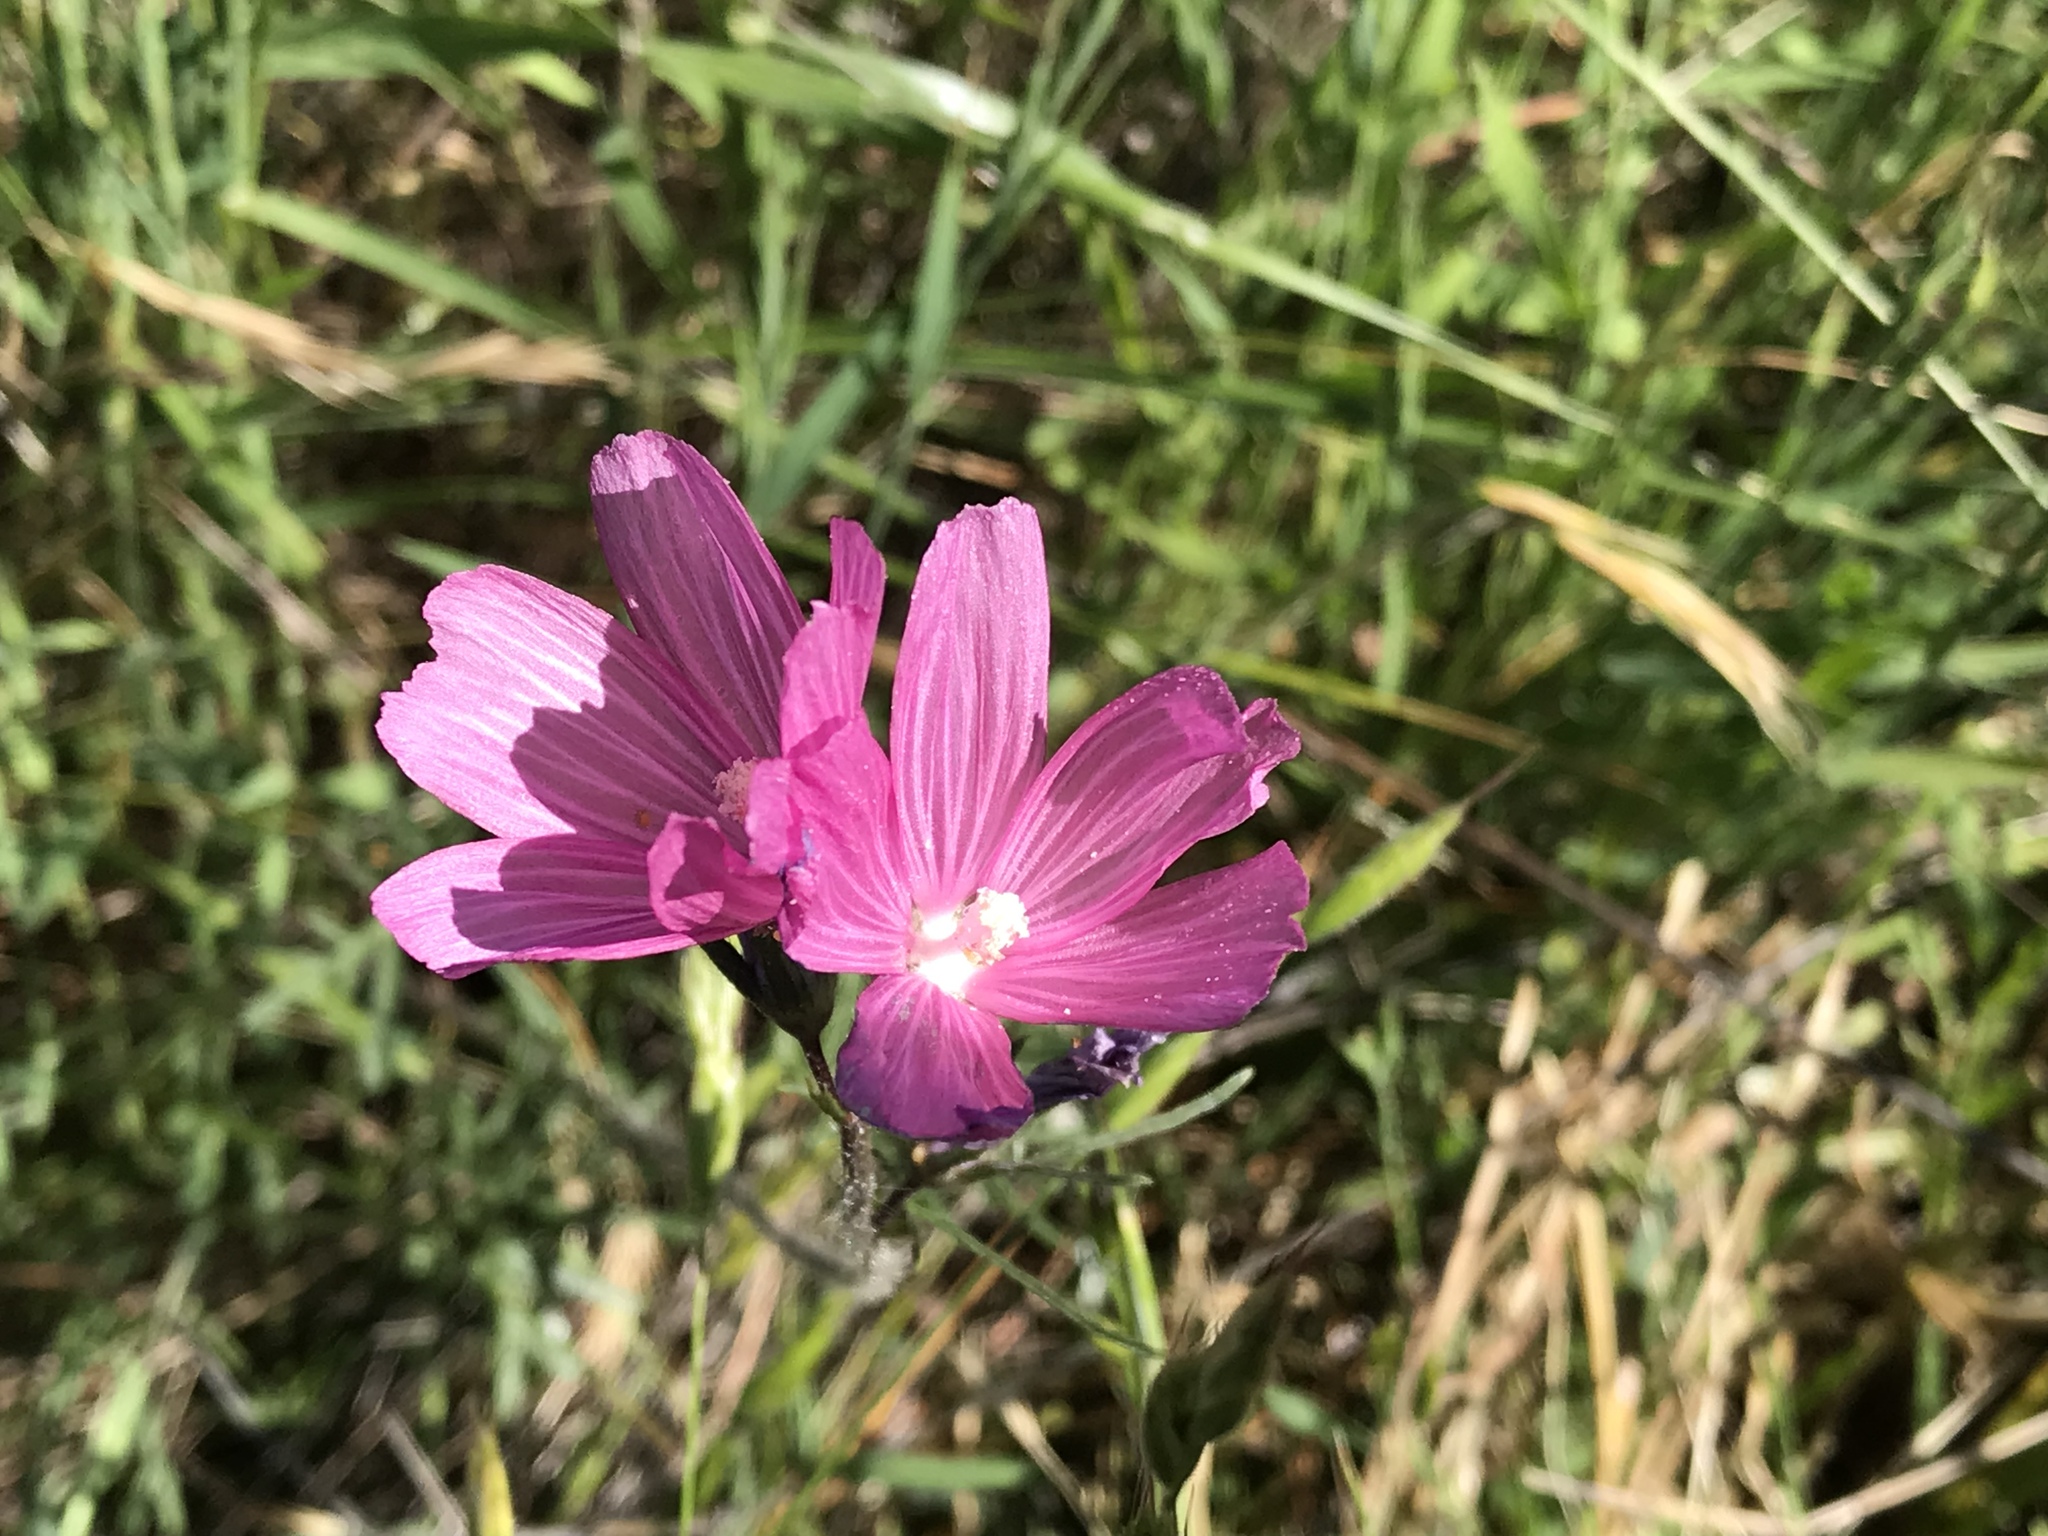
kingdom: Plantae
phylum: Tracheophyta
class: Magnoliopsida
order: Malvales
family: Malvaceae
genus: Sidalcea
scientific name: Sidalcea malviflora
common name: Greek mallow
